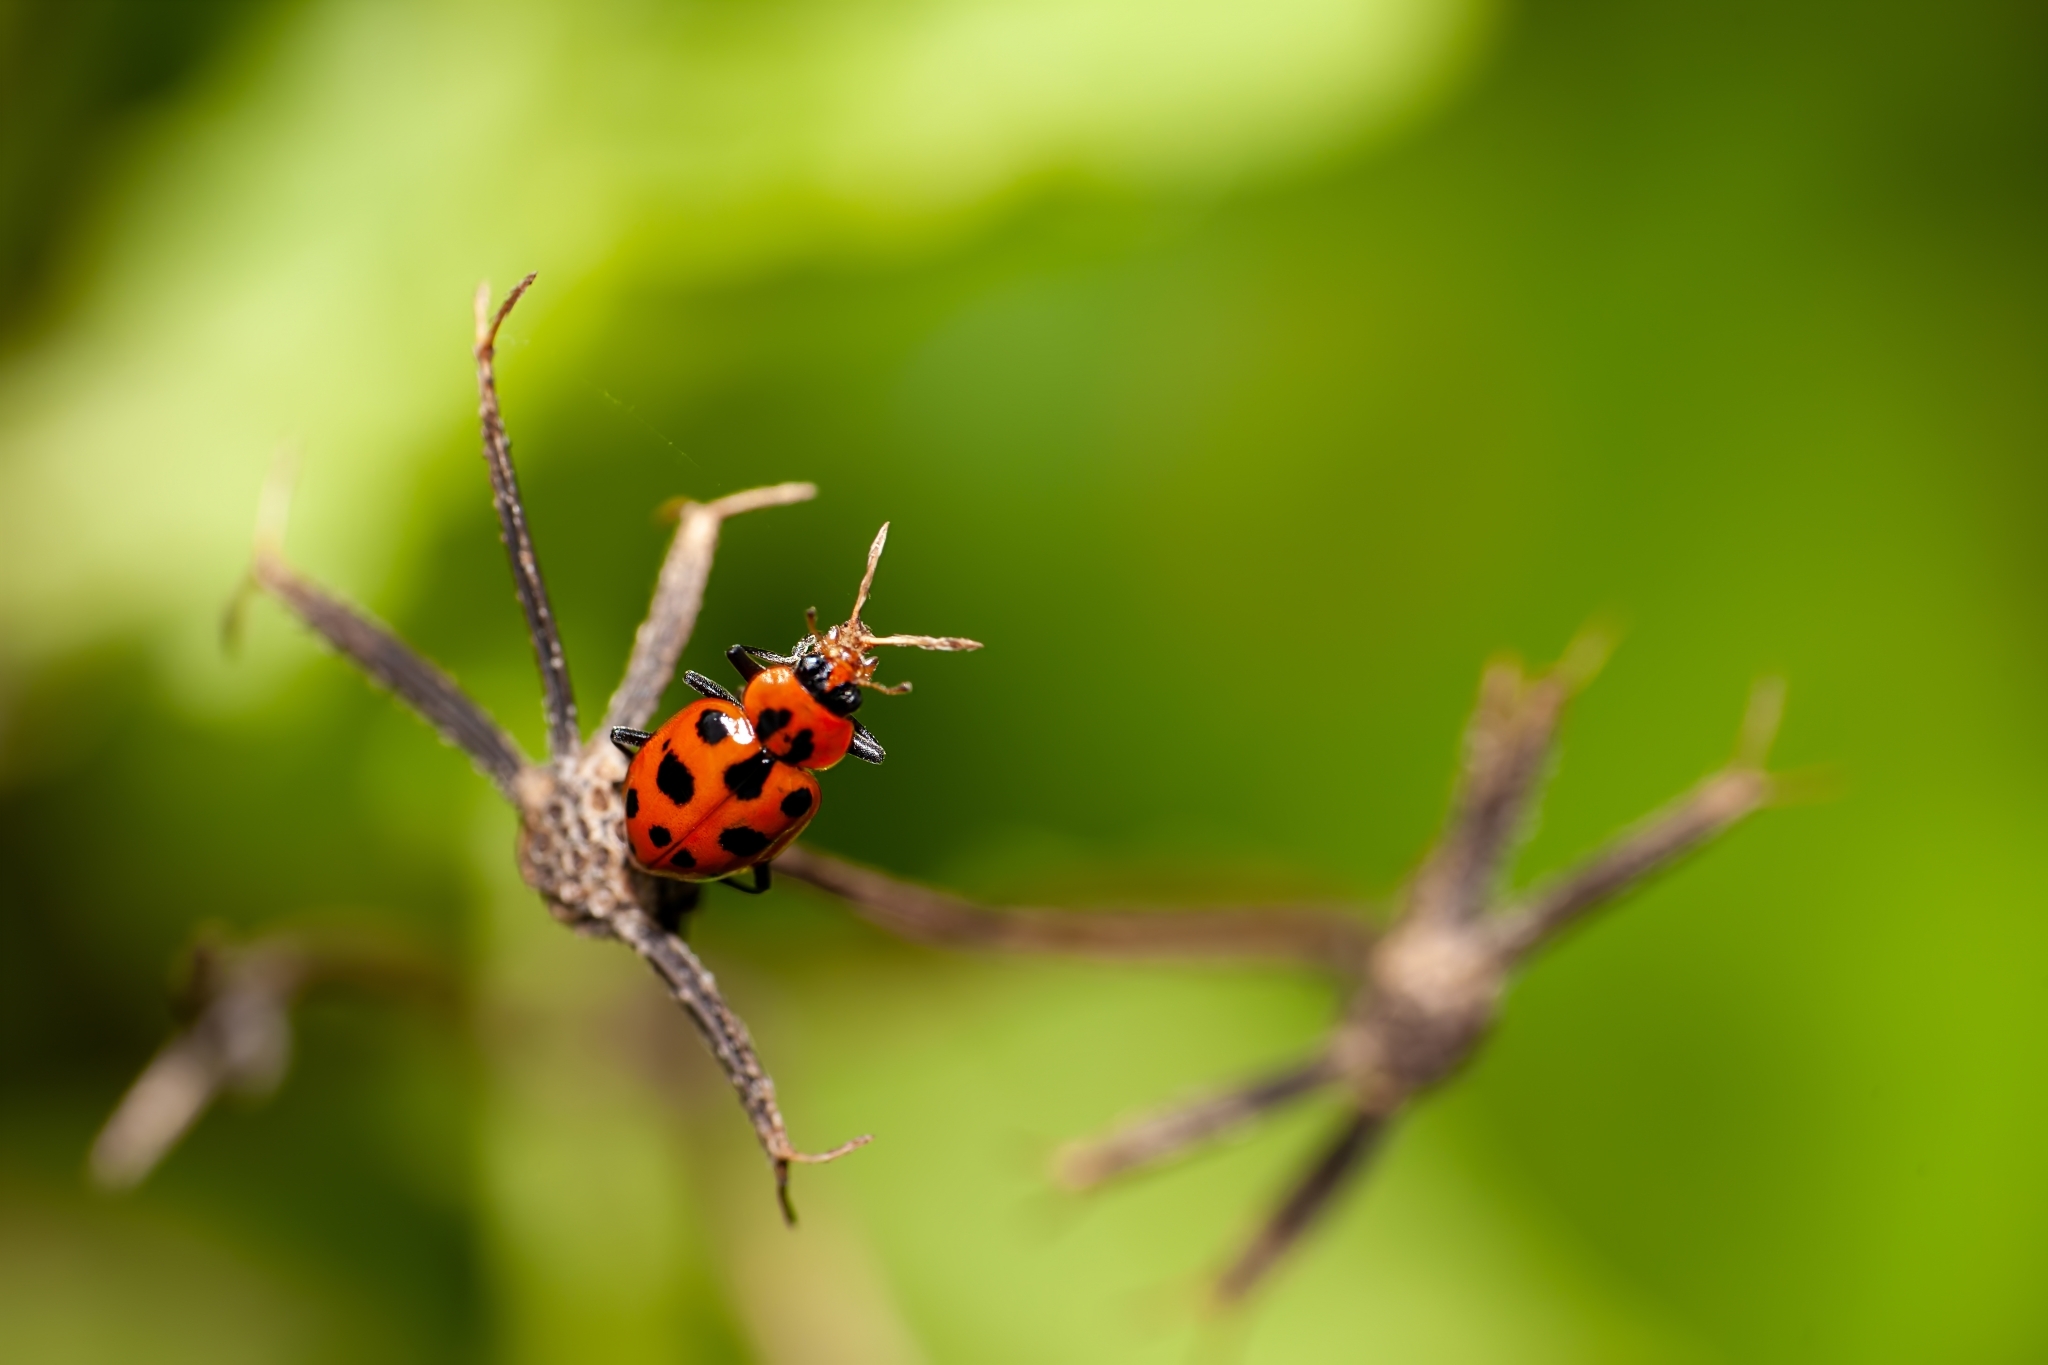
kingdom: Animalia
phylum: Arthropoda
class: Insecta
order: Coleoptera
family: Coccinellidae
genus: Coleomegilla
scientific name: Coleomegilla maculata
